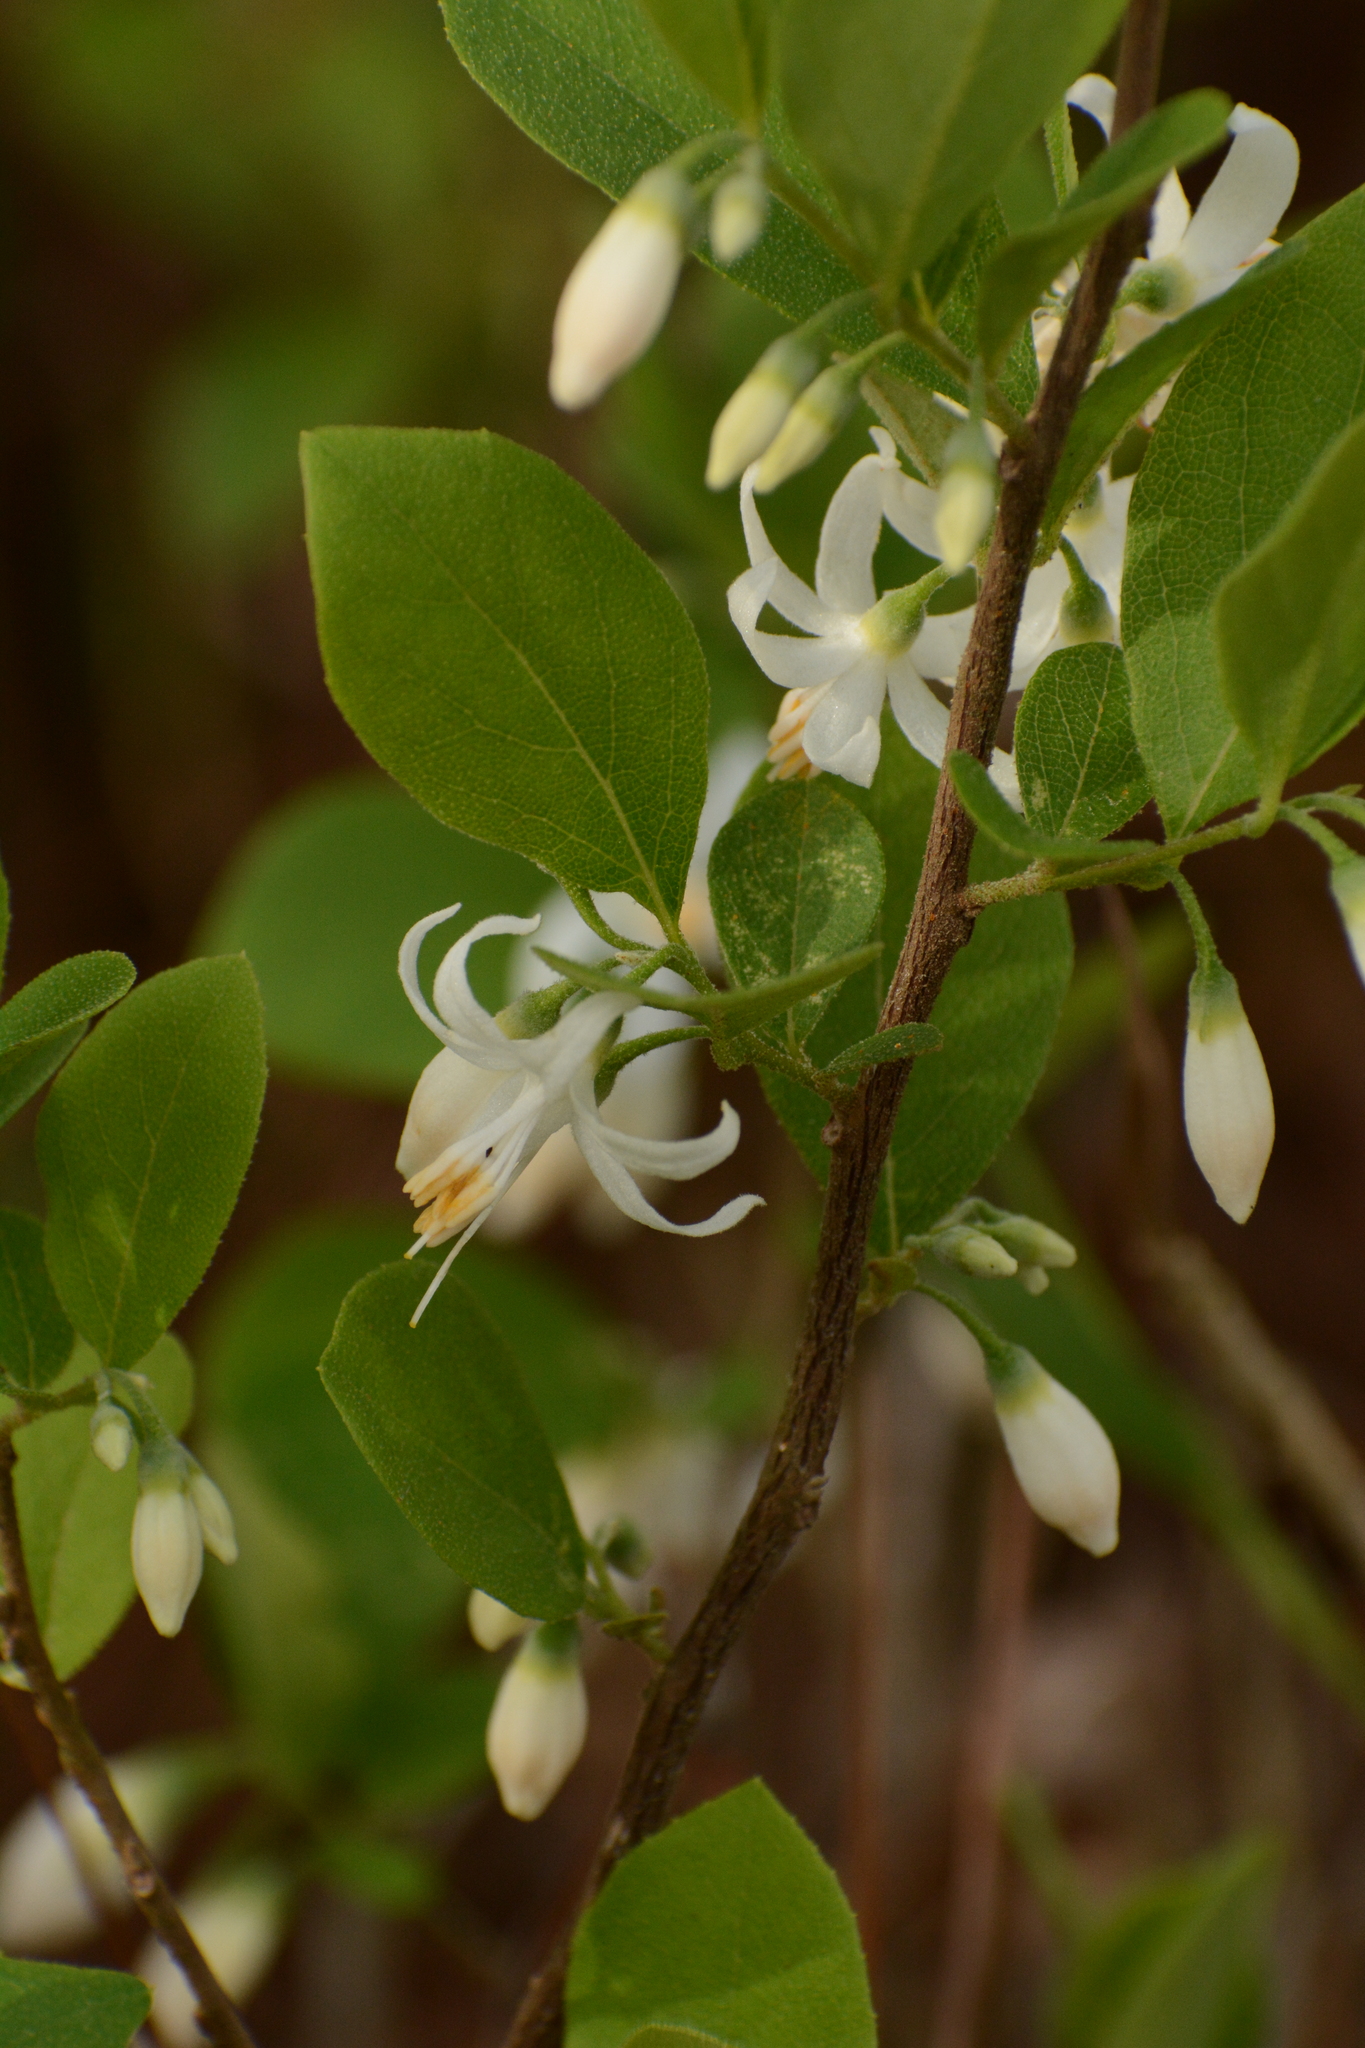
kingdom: Plantae
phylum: Tracheophyta
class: Magnoliopsida
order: Ericales
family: Styracaceae
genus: Styrax
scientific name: Styrax americanus
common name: American snowbell
